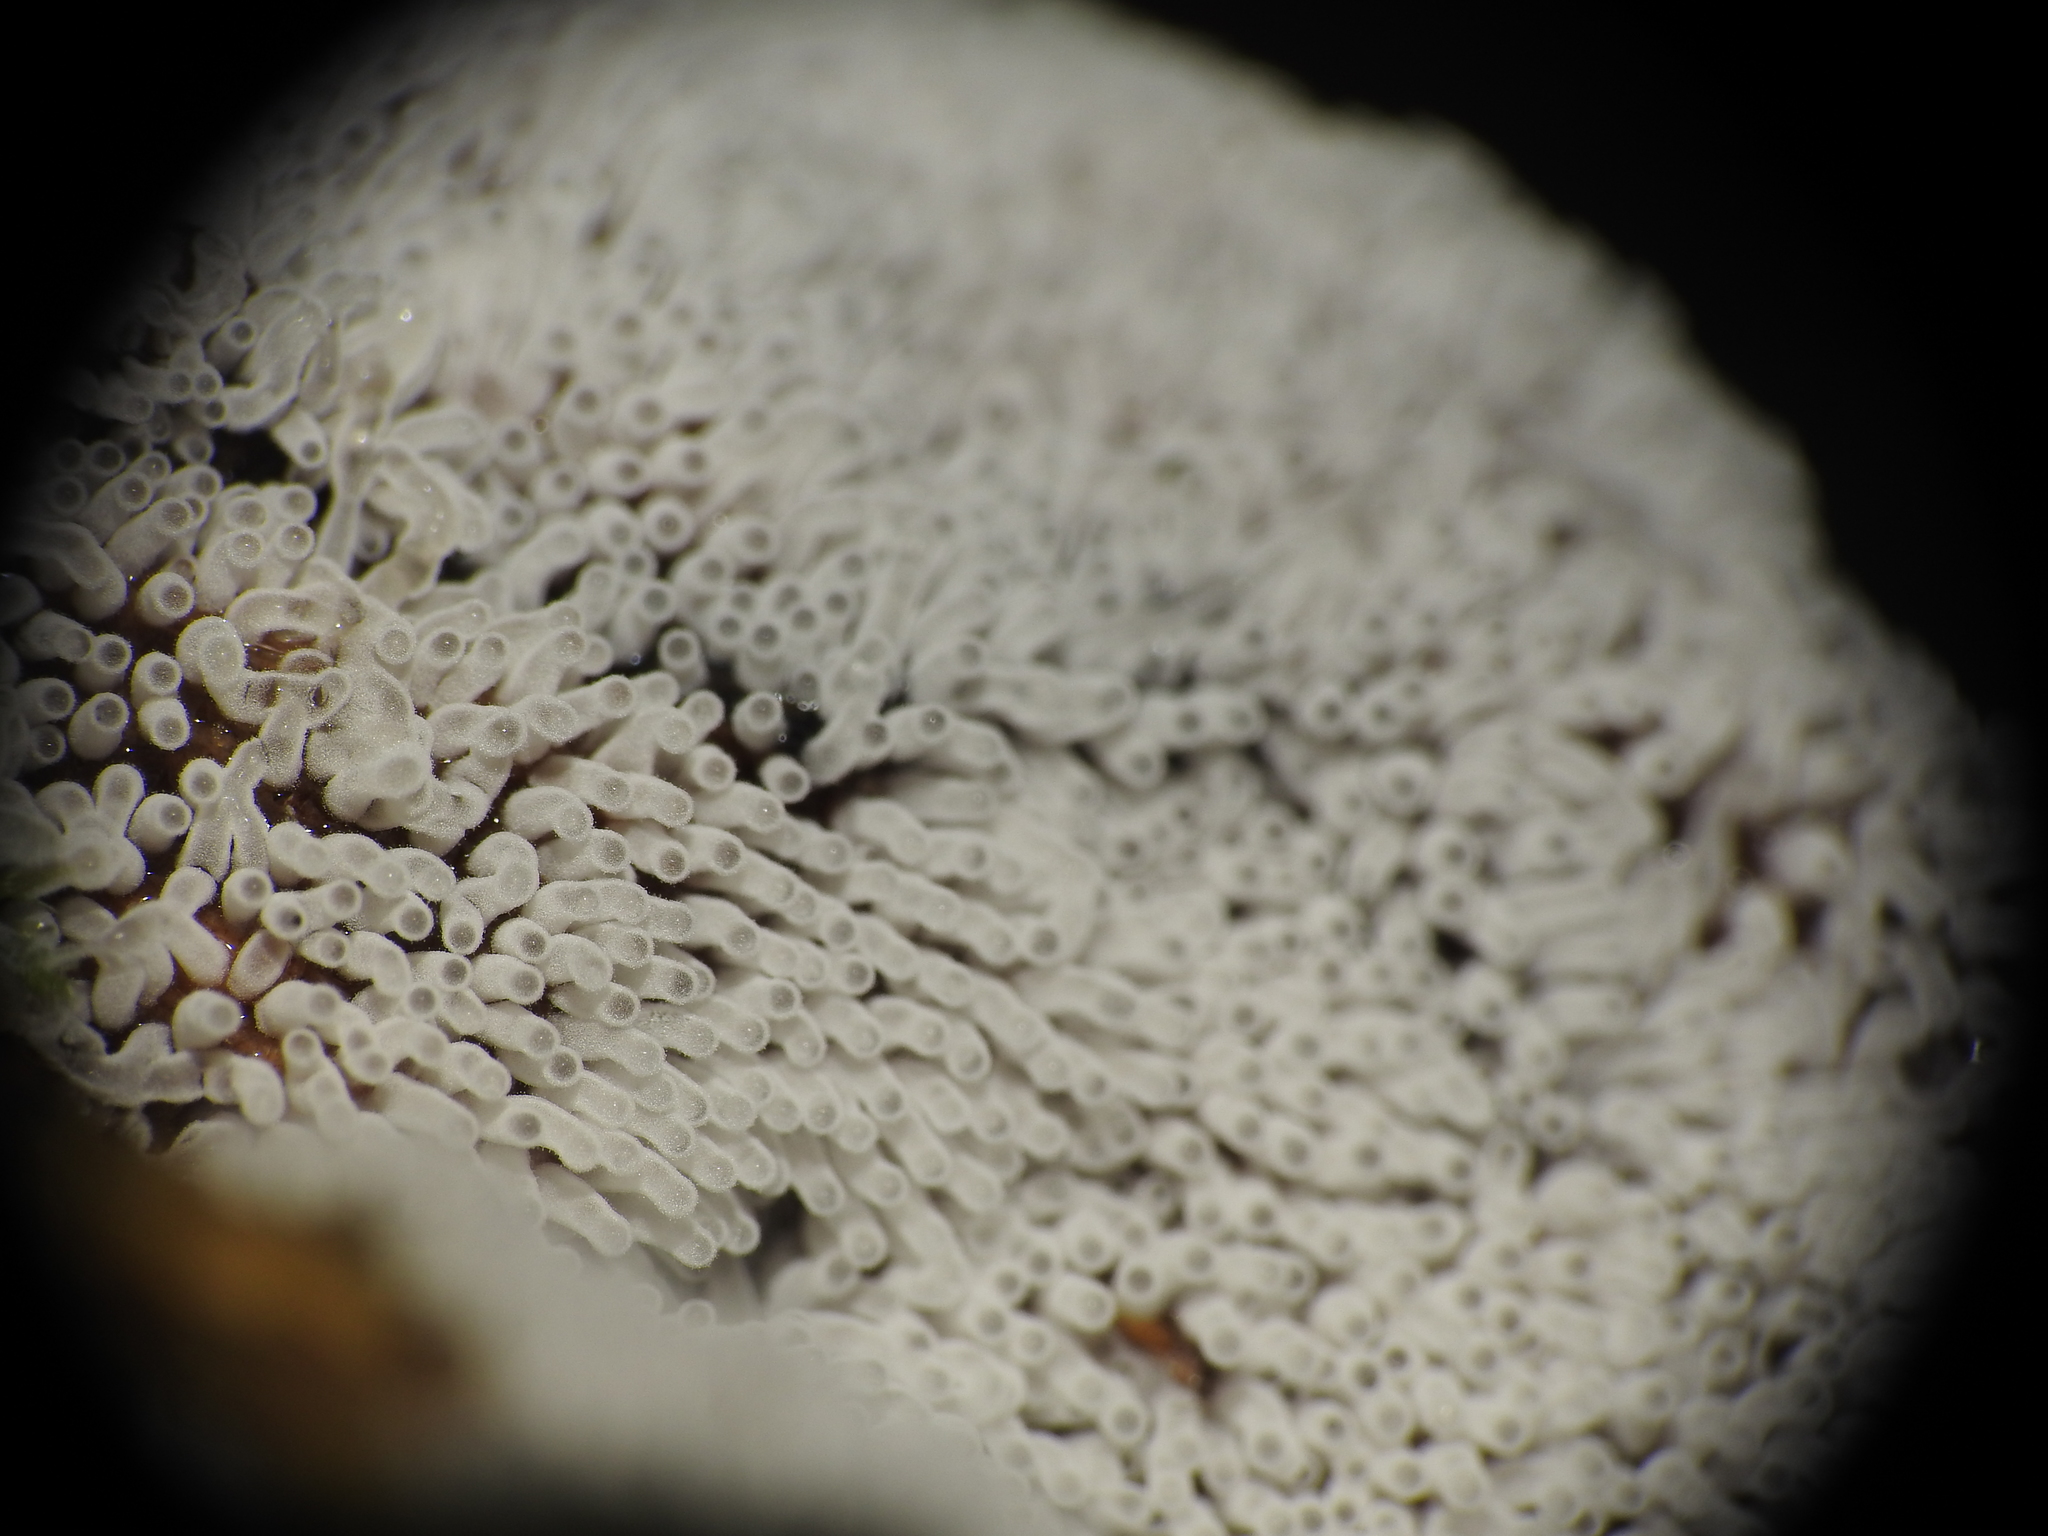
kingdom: Protozoa
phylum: Mycetozoa
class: Protosteliomycetes
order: Ceratiomyxales
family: Ceratiomyxaceae
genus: Ceratiomyxa
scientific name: Ceratiomyxa fruticulosa
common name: Honeycomb coral slime mold
